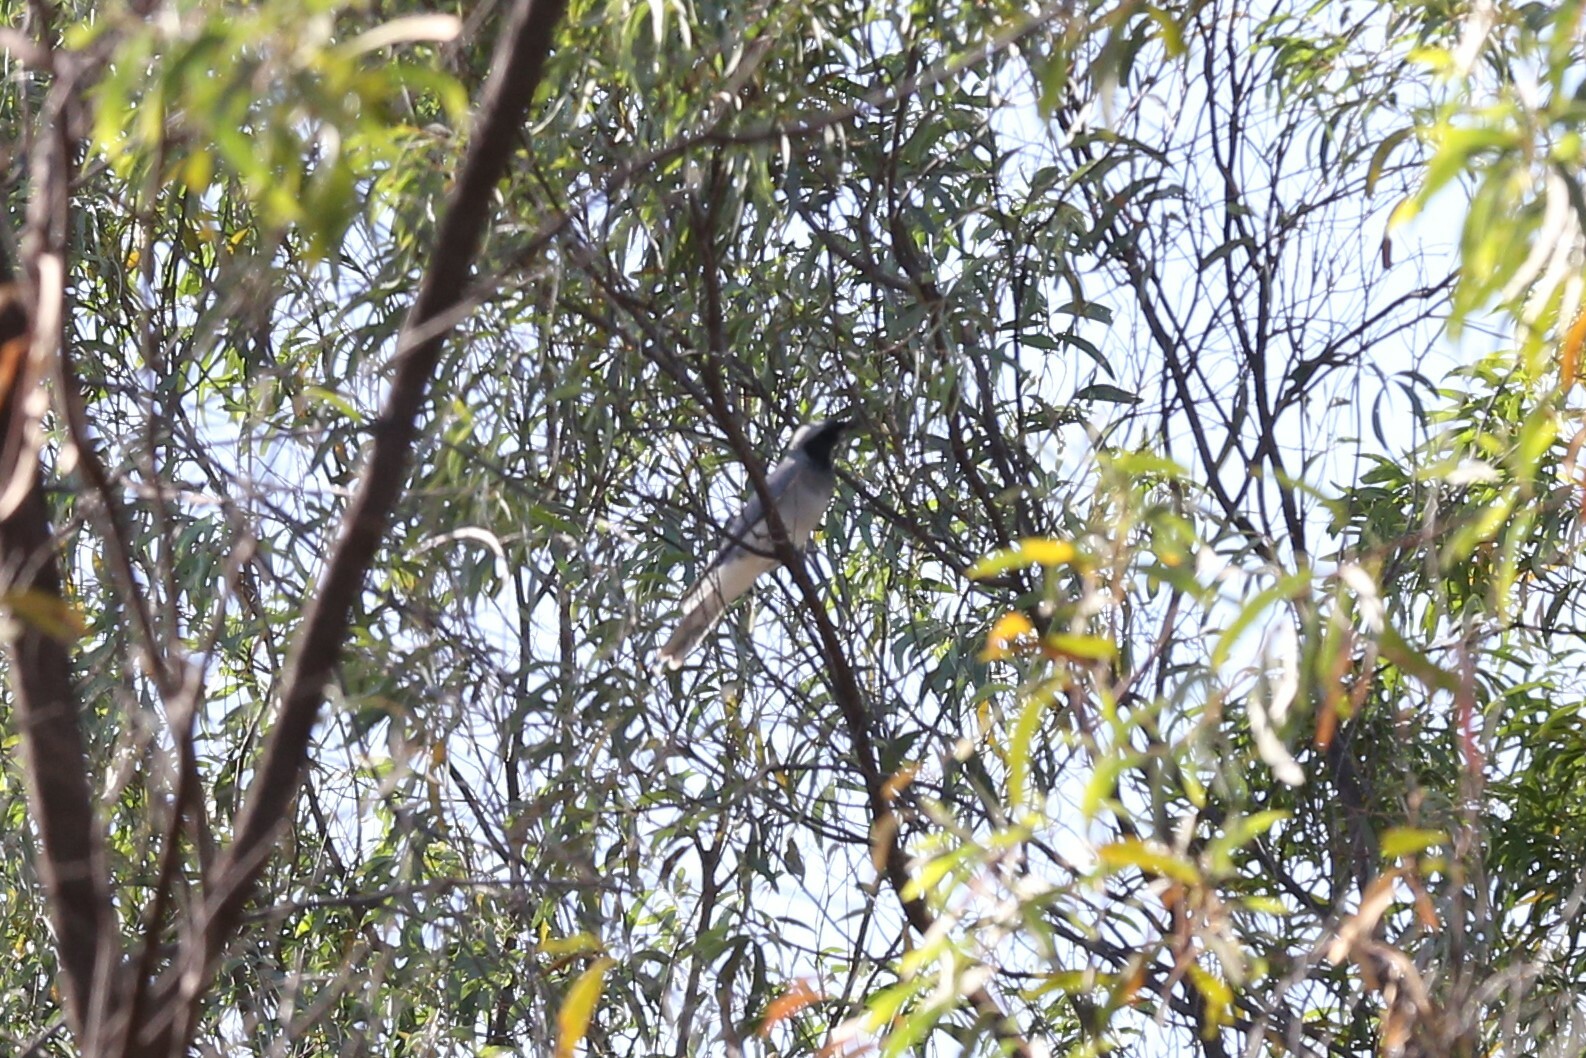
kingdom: Animalia
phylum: Chordata
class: Aves
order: Passeriformes
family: Campephagidae
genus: Coracina
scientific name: Coracina novaehollandiae
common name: Black-faced cuckooshrike
